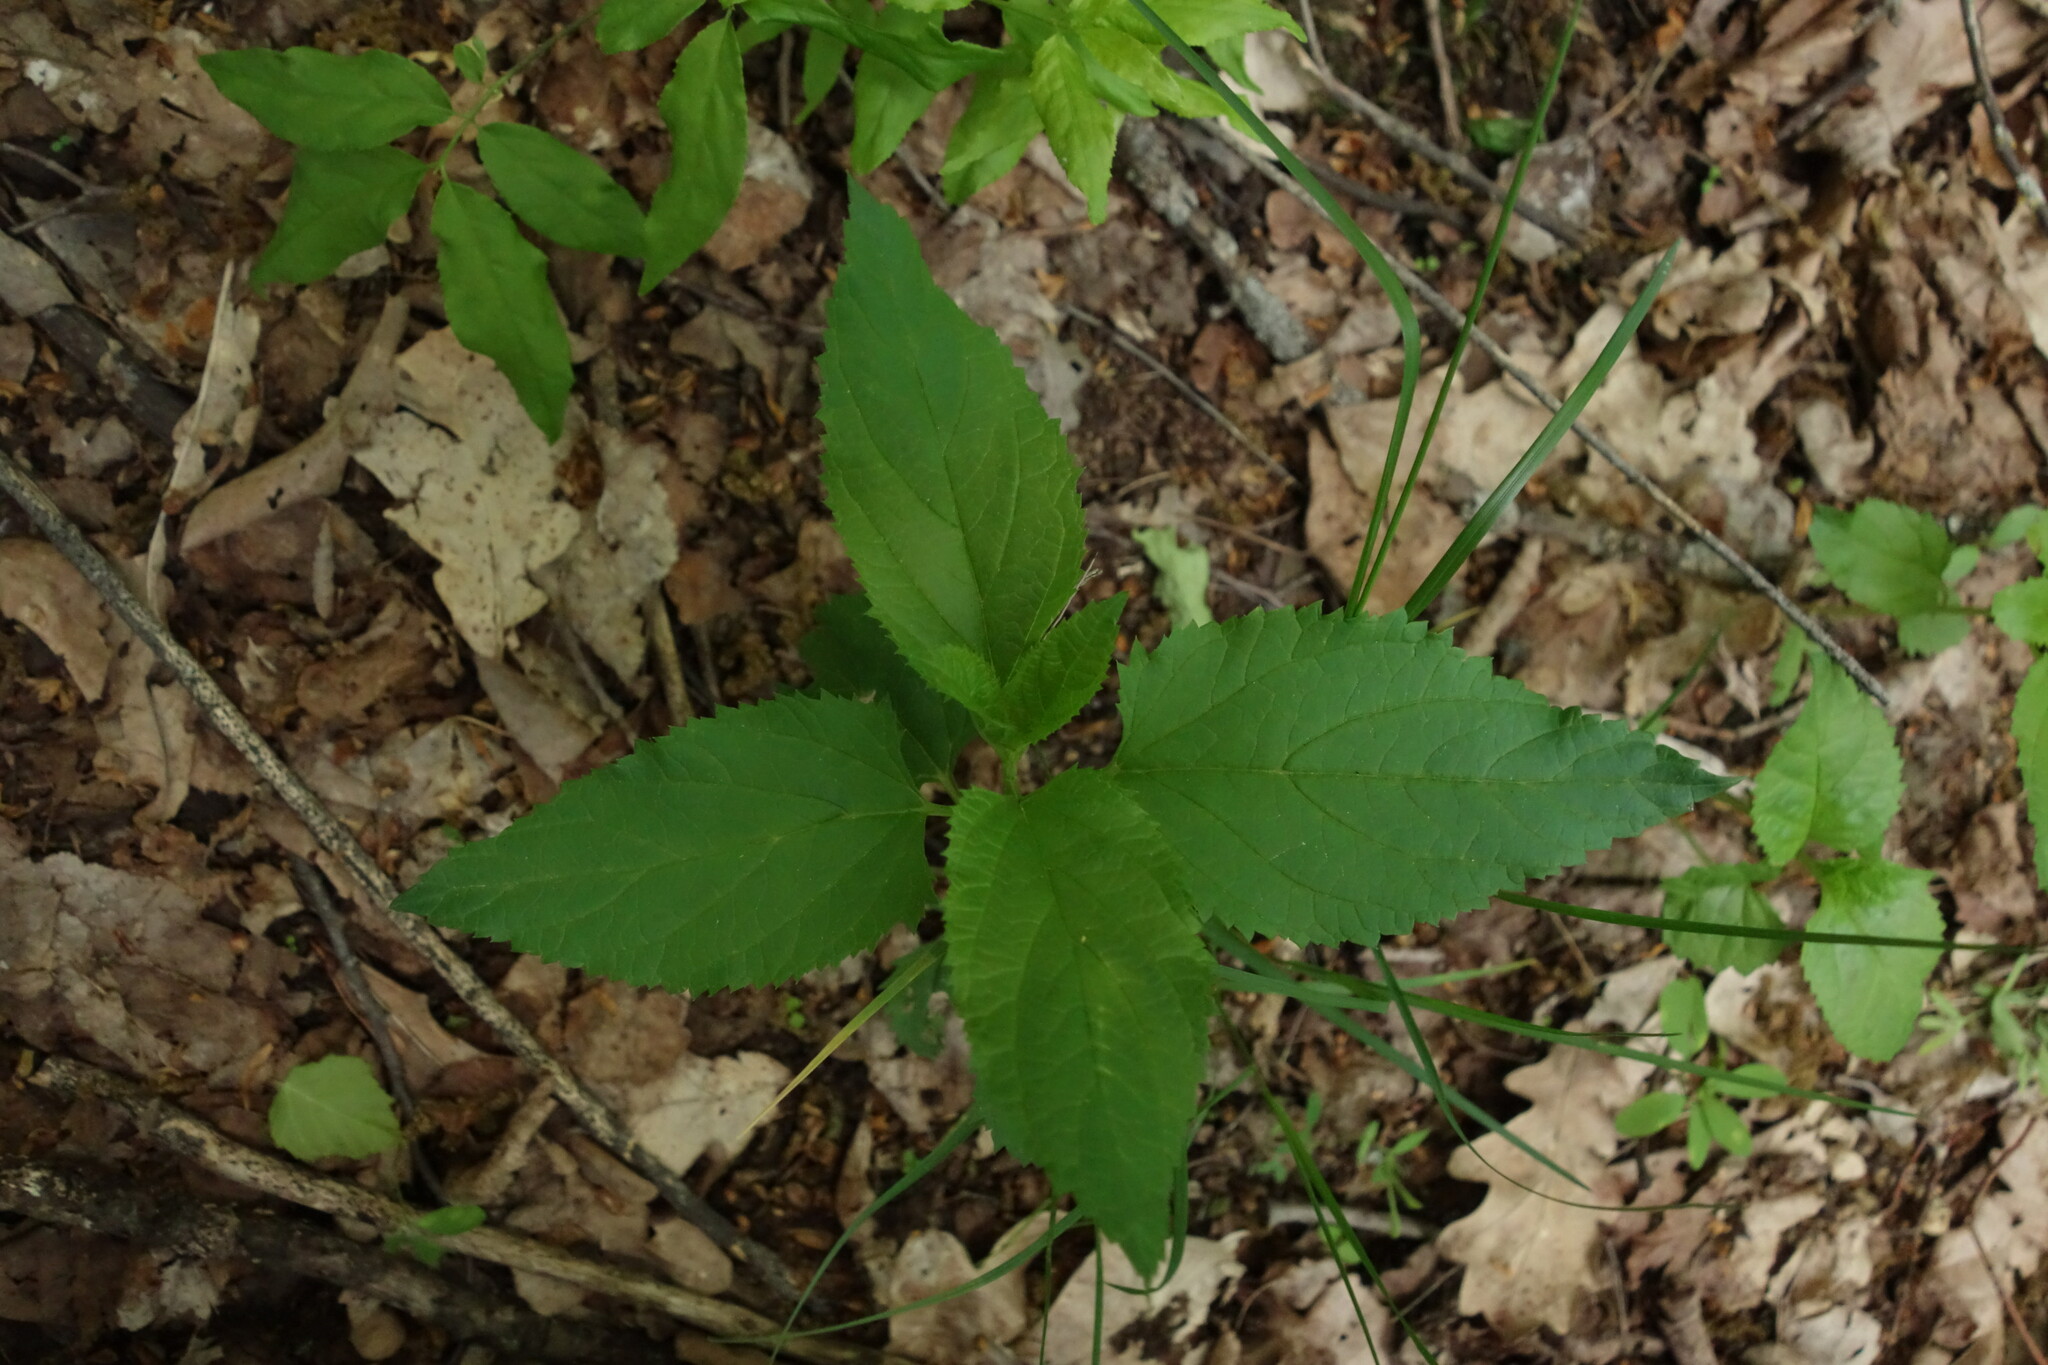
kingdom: Plantae
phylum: Tracheophyta
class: Magnoliopsida
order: Lamiales
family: Scrophulariaceae
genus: Scrophularia
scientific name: Scrophularia nodosa
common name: Common figwort
